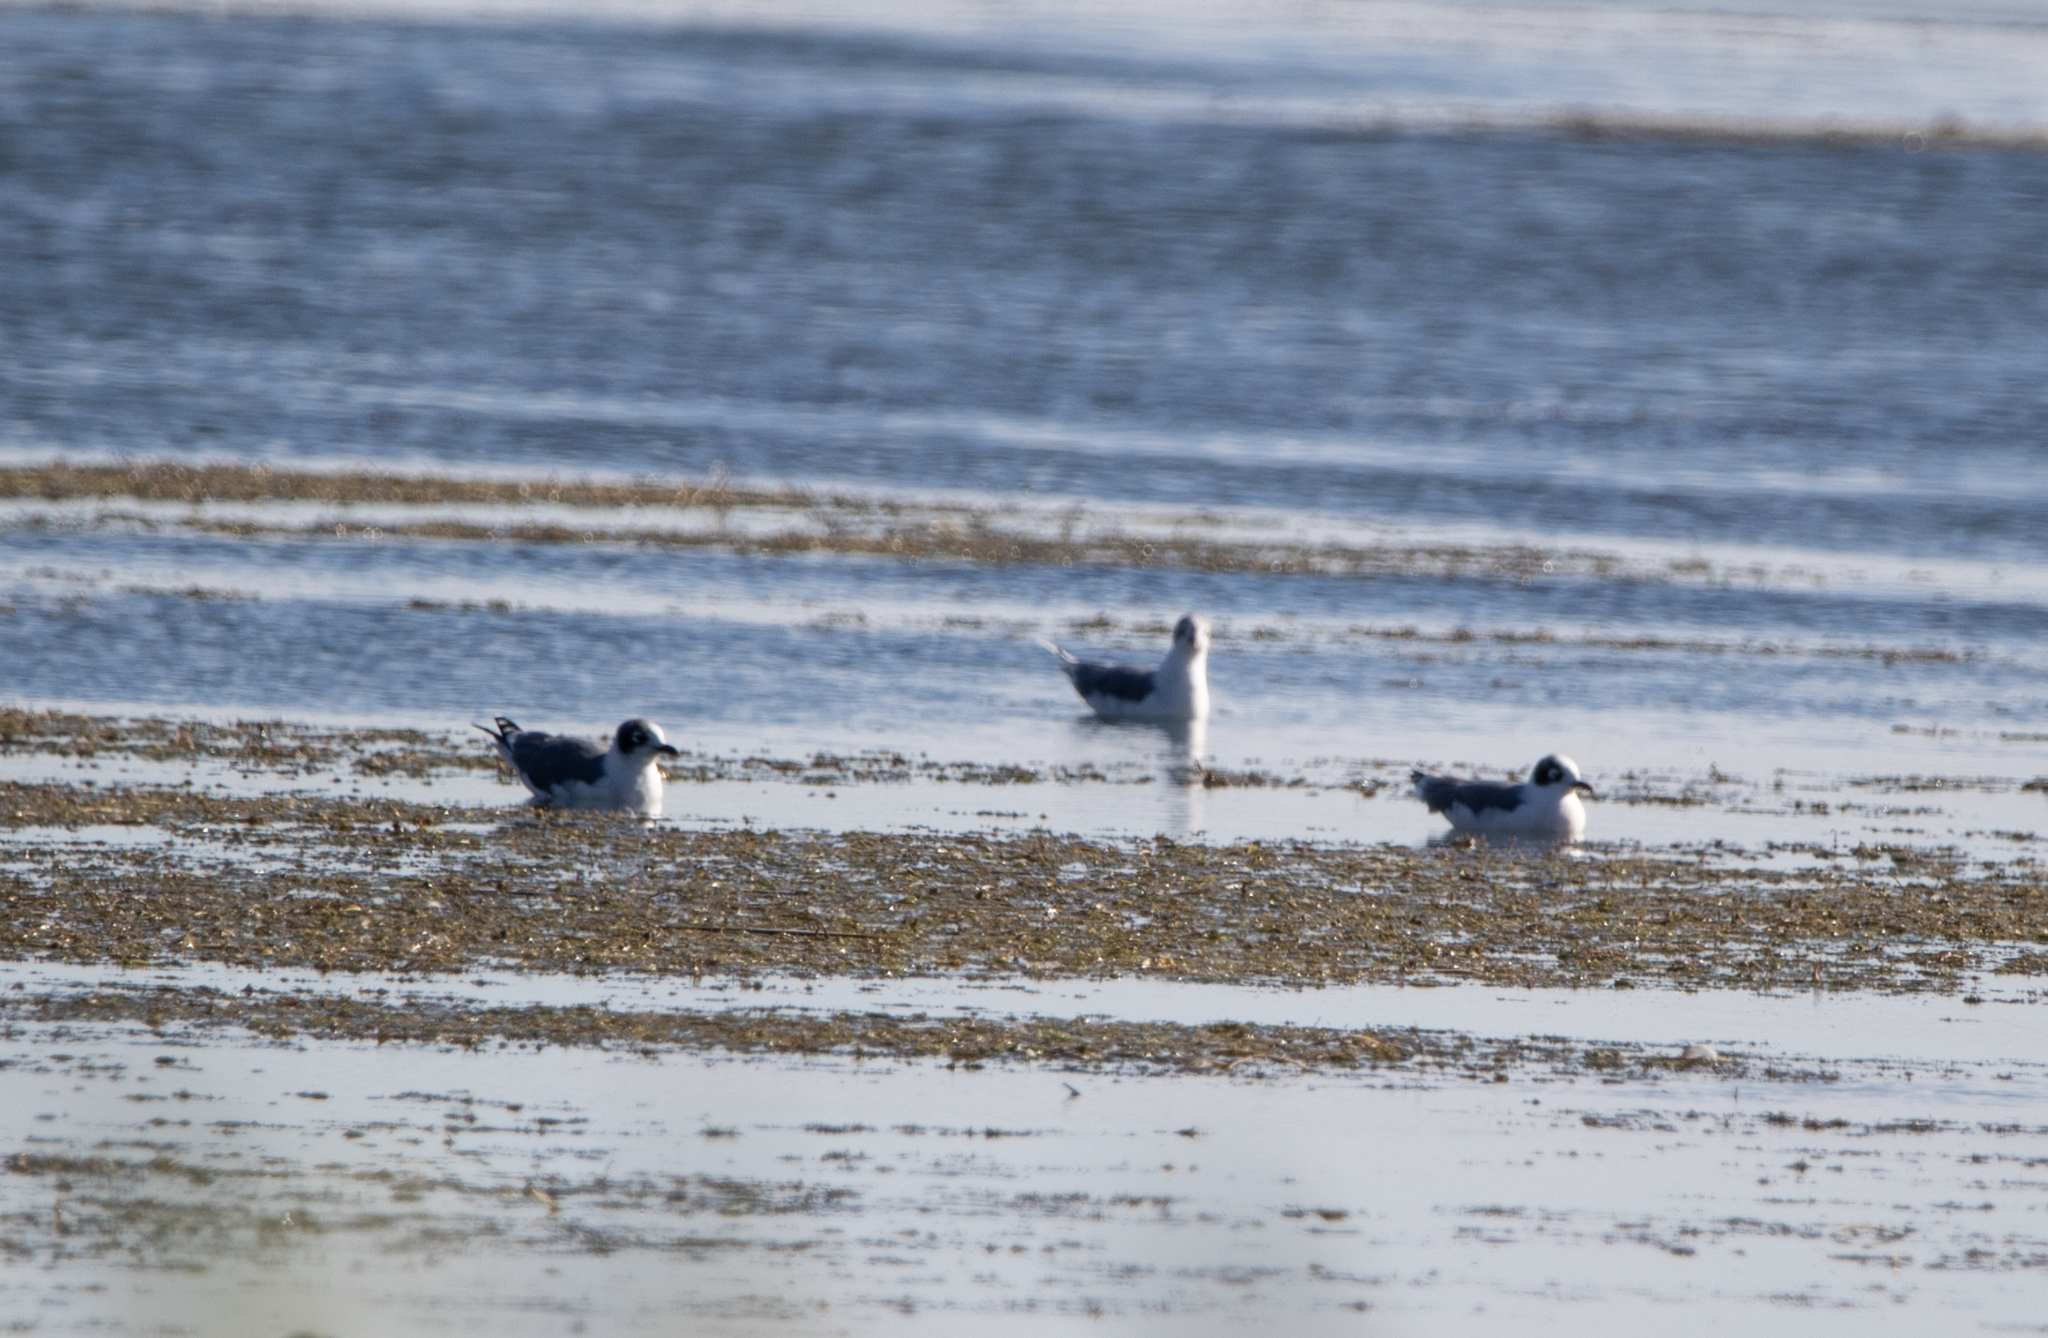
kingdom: Animalia
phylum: Chordata
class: Aves
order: Charadriiformes
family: Laridae
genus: Leucophaeus
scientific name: Leucophaeus pipixcan
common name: Franklin's gull
